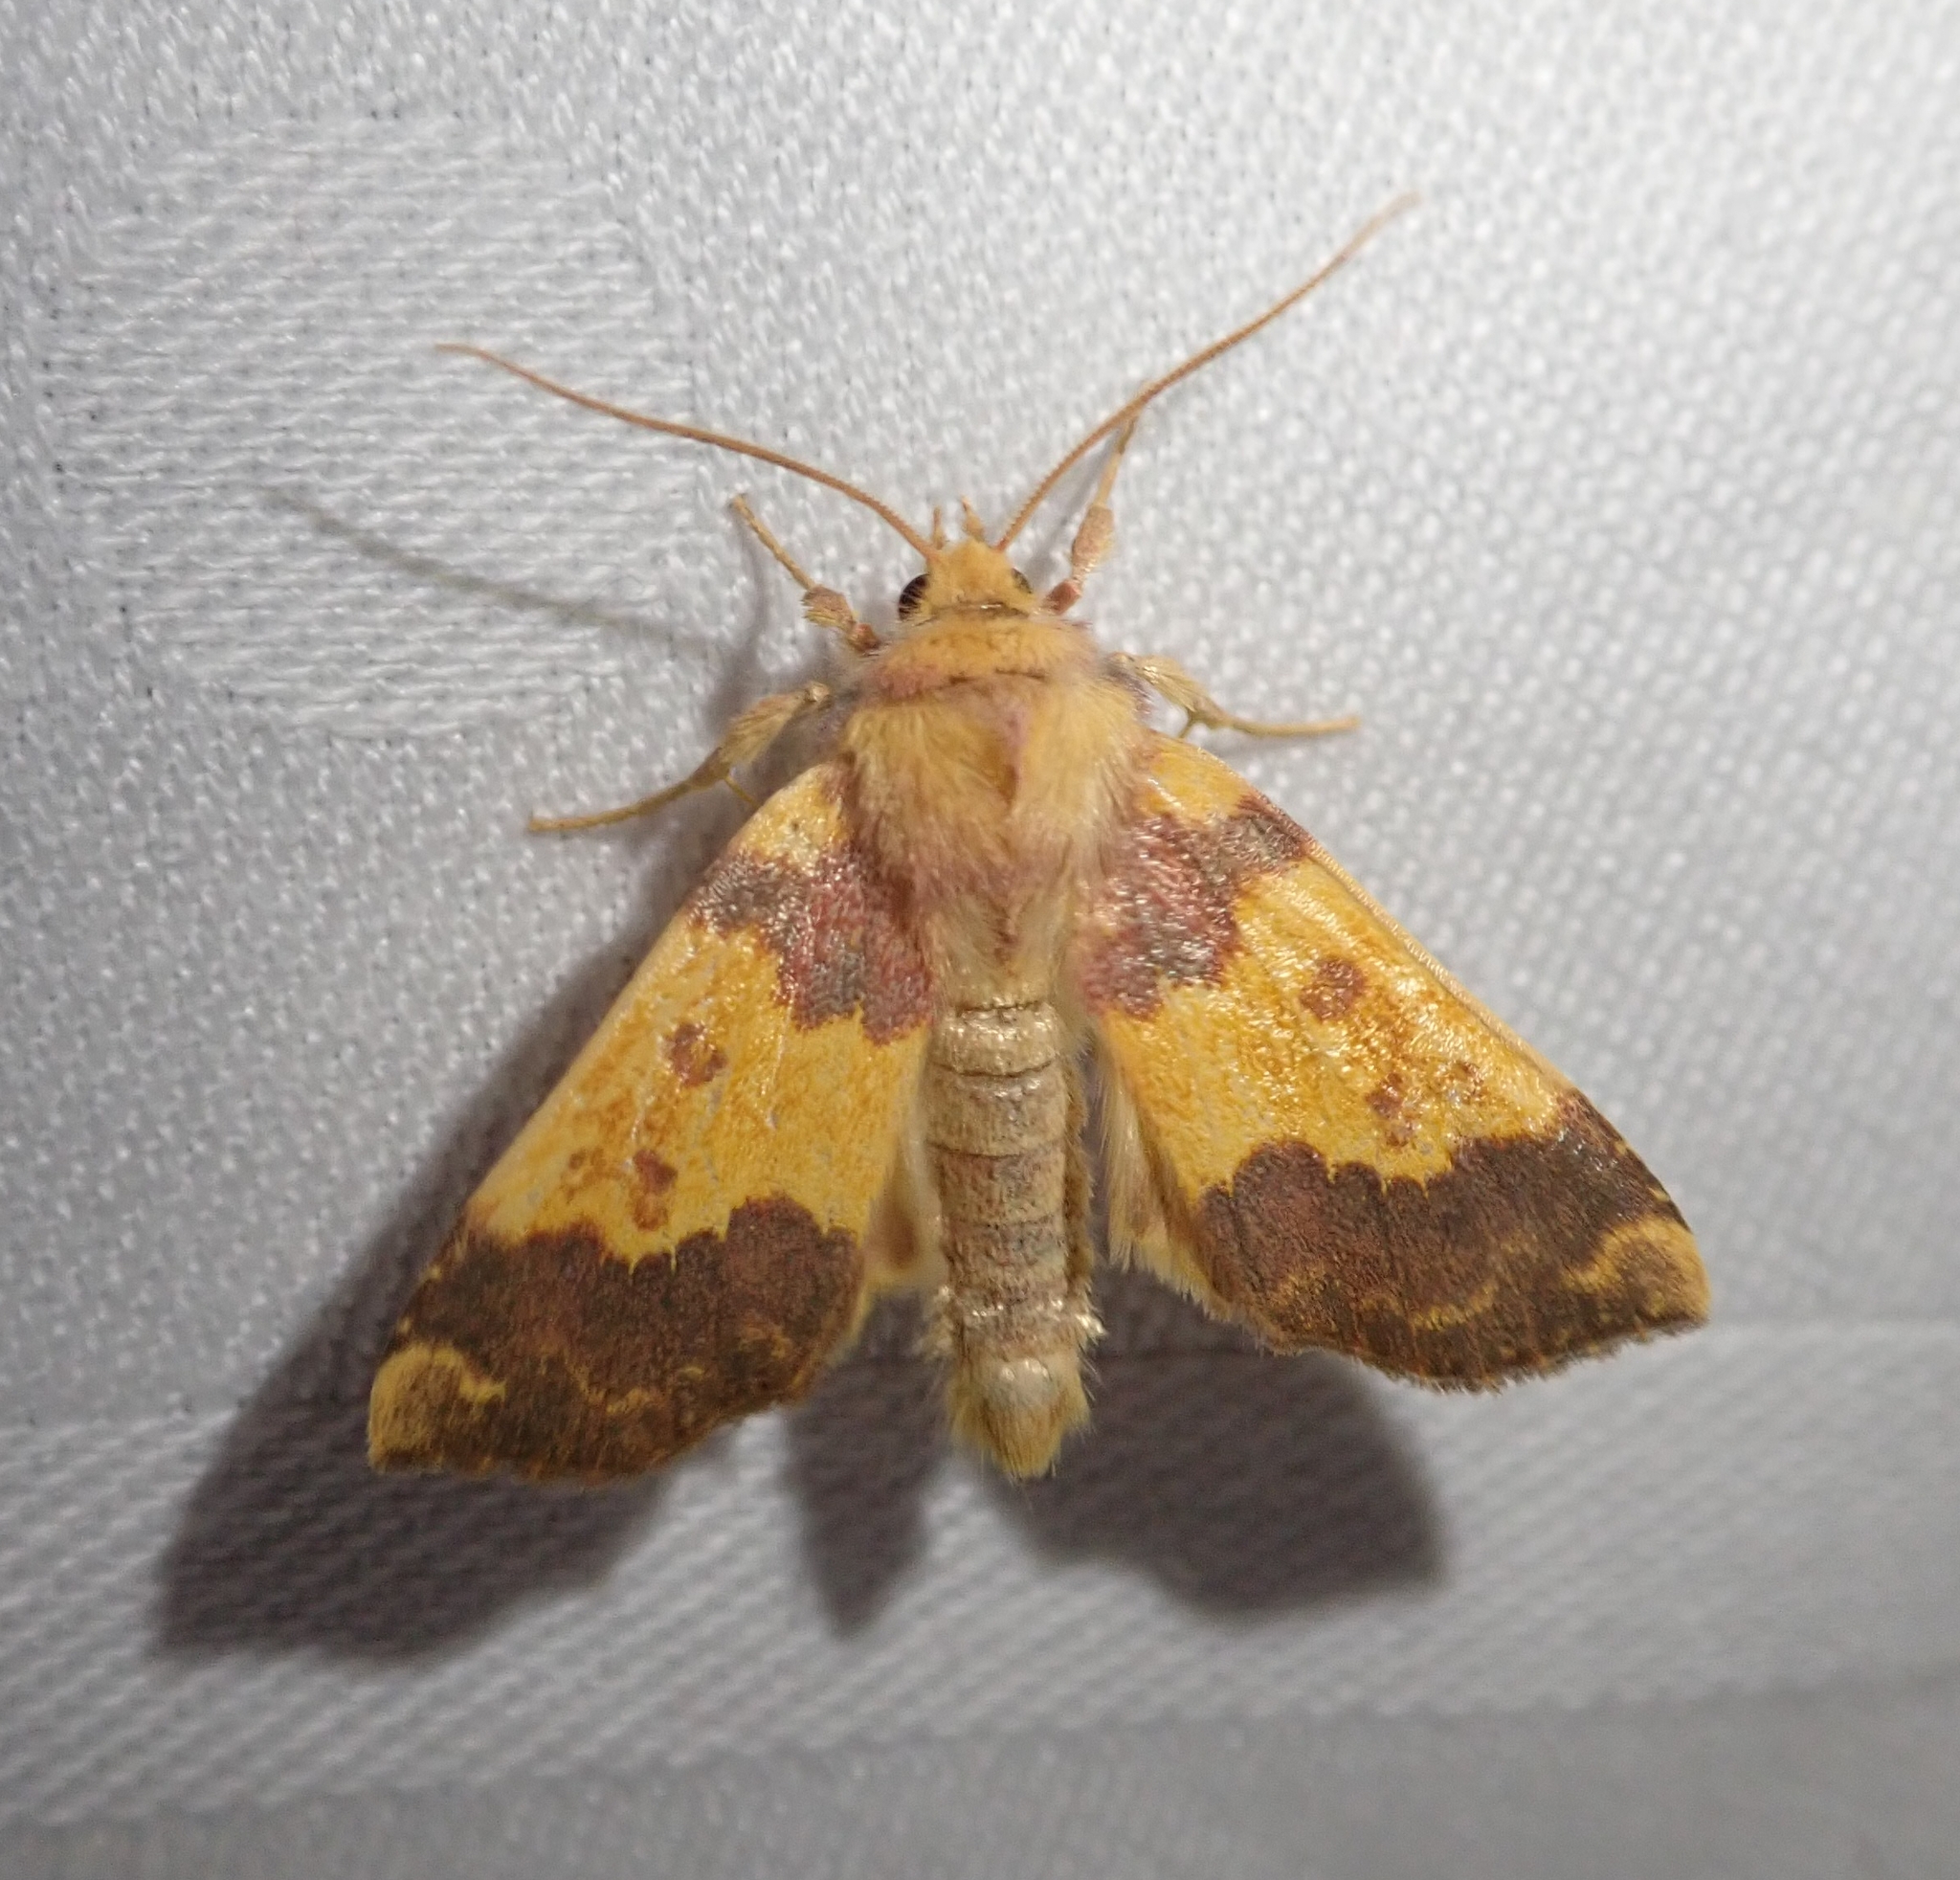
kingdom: Animalia
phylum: Arthropoda
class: Insecta
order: Lepidoptera
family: Noctuidae
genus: Tiliacea
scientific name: Tiliacea aurago
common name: Barred sallow
